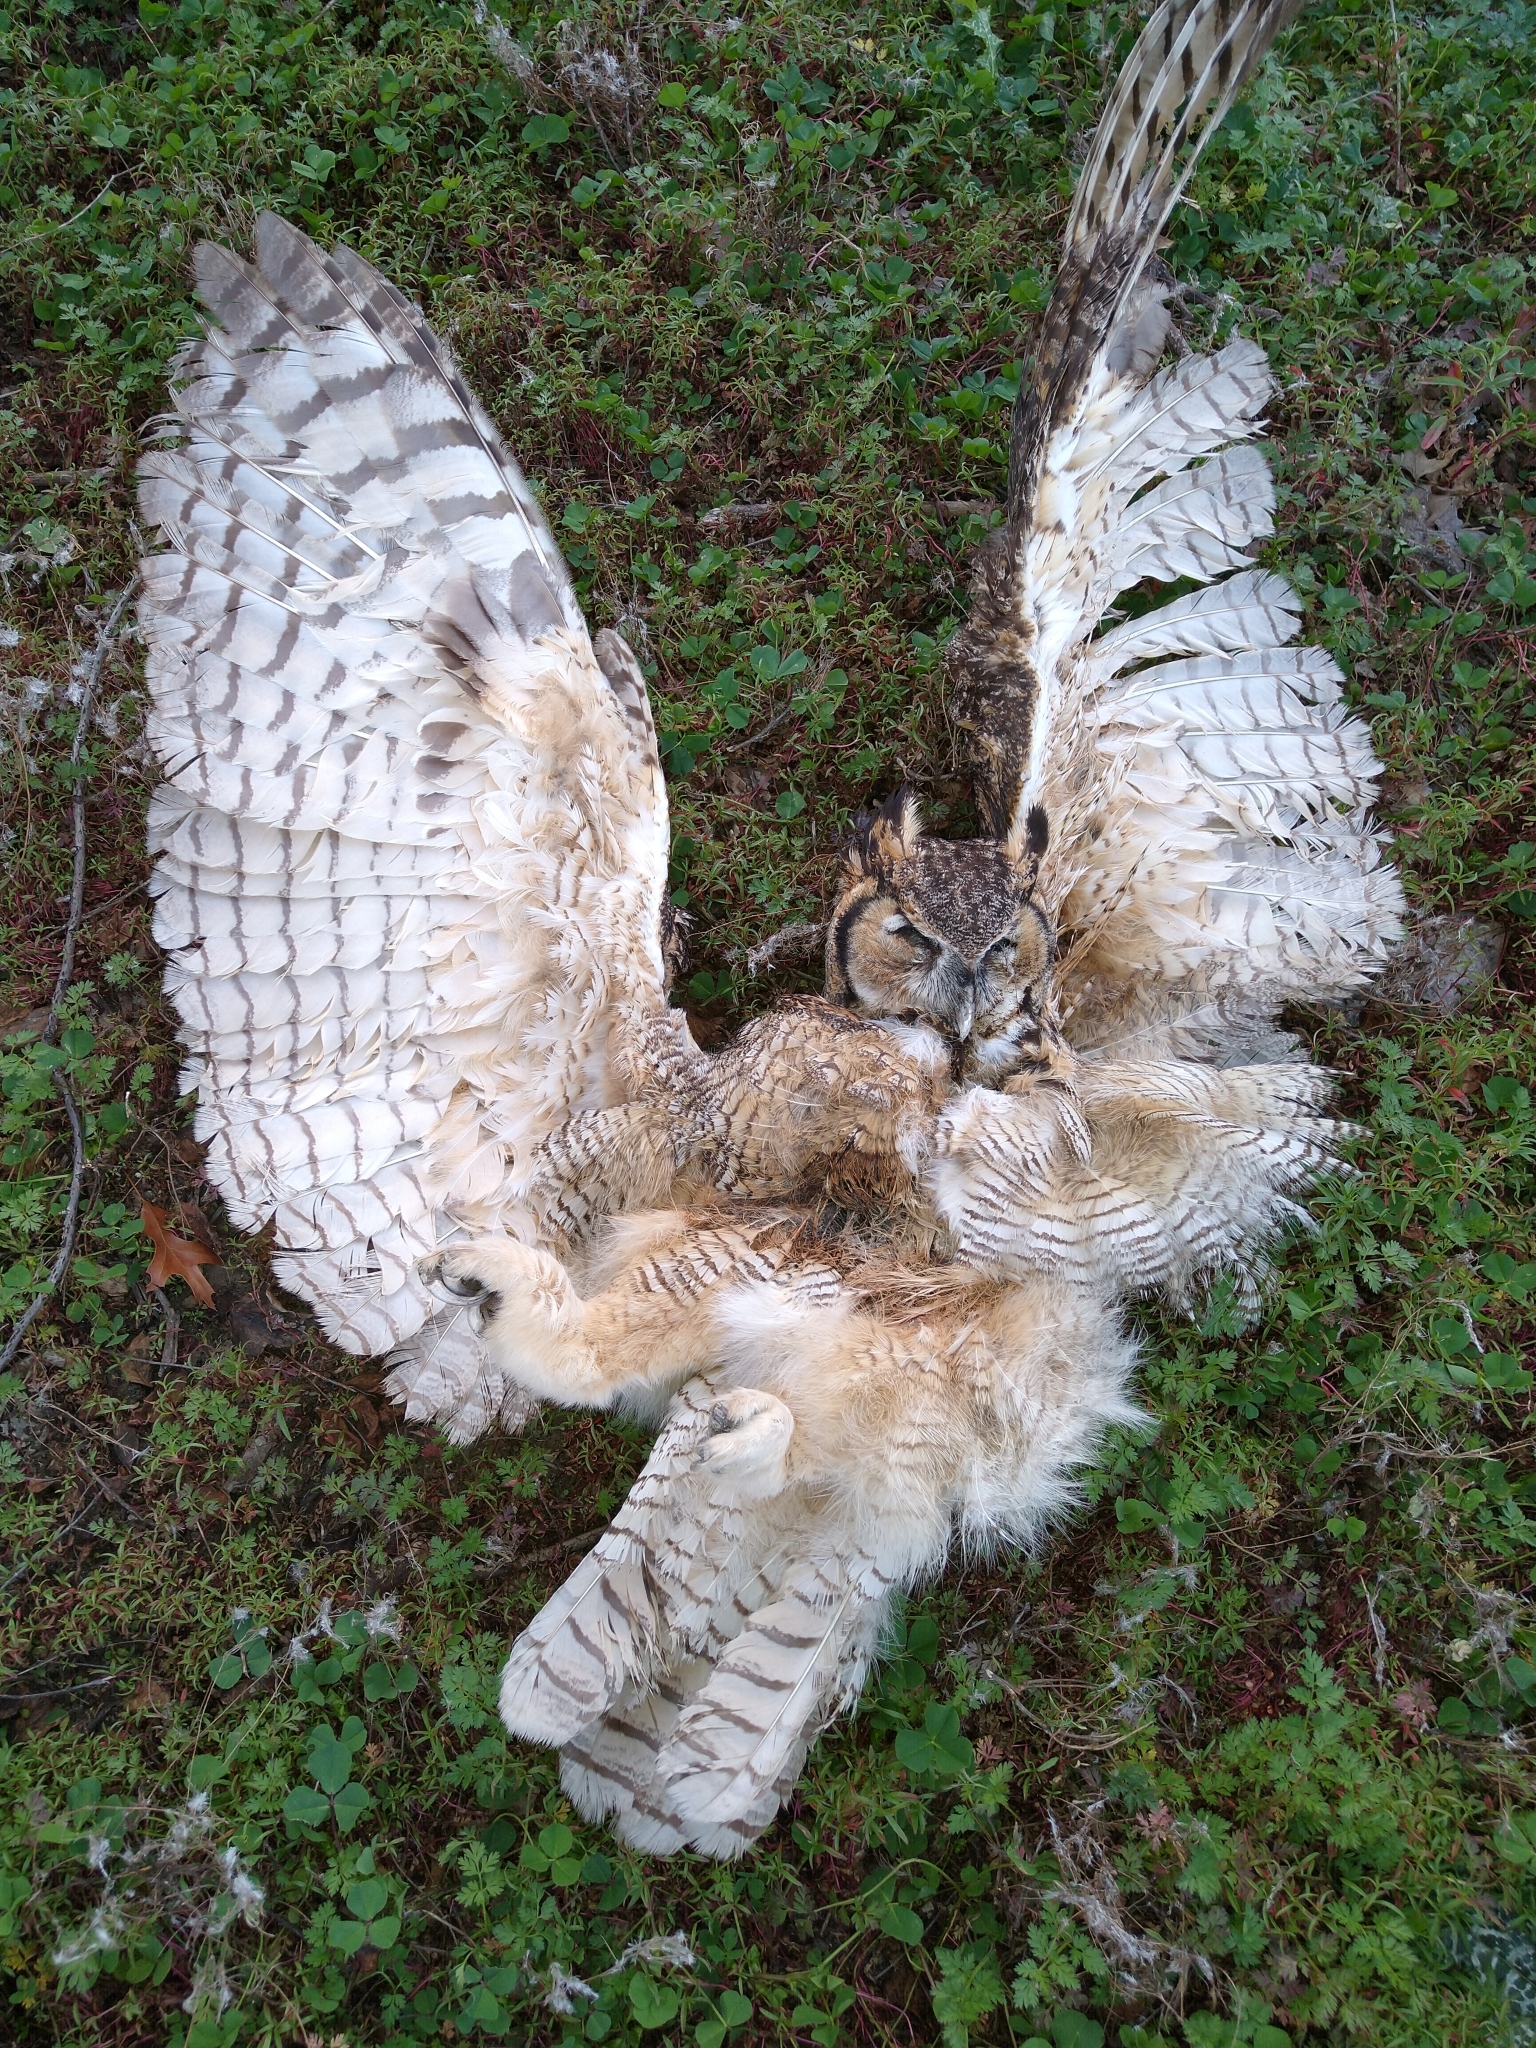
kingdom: Animalia
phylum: Chordata
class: Aves
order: Strigiformes
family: Strigidae
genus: Bubo
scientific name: Bubo virginianus
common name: Great horned owl
